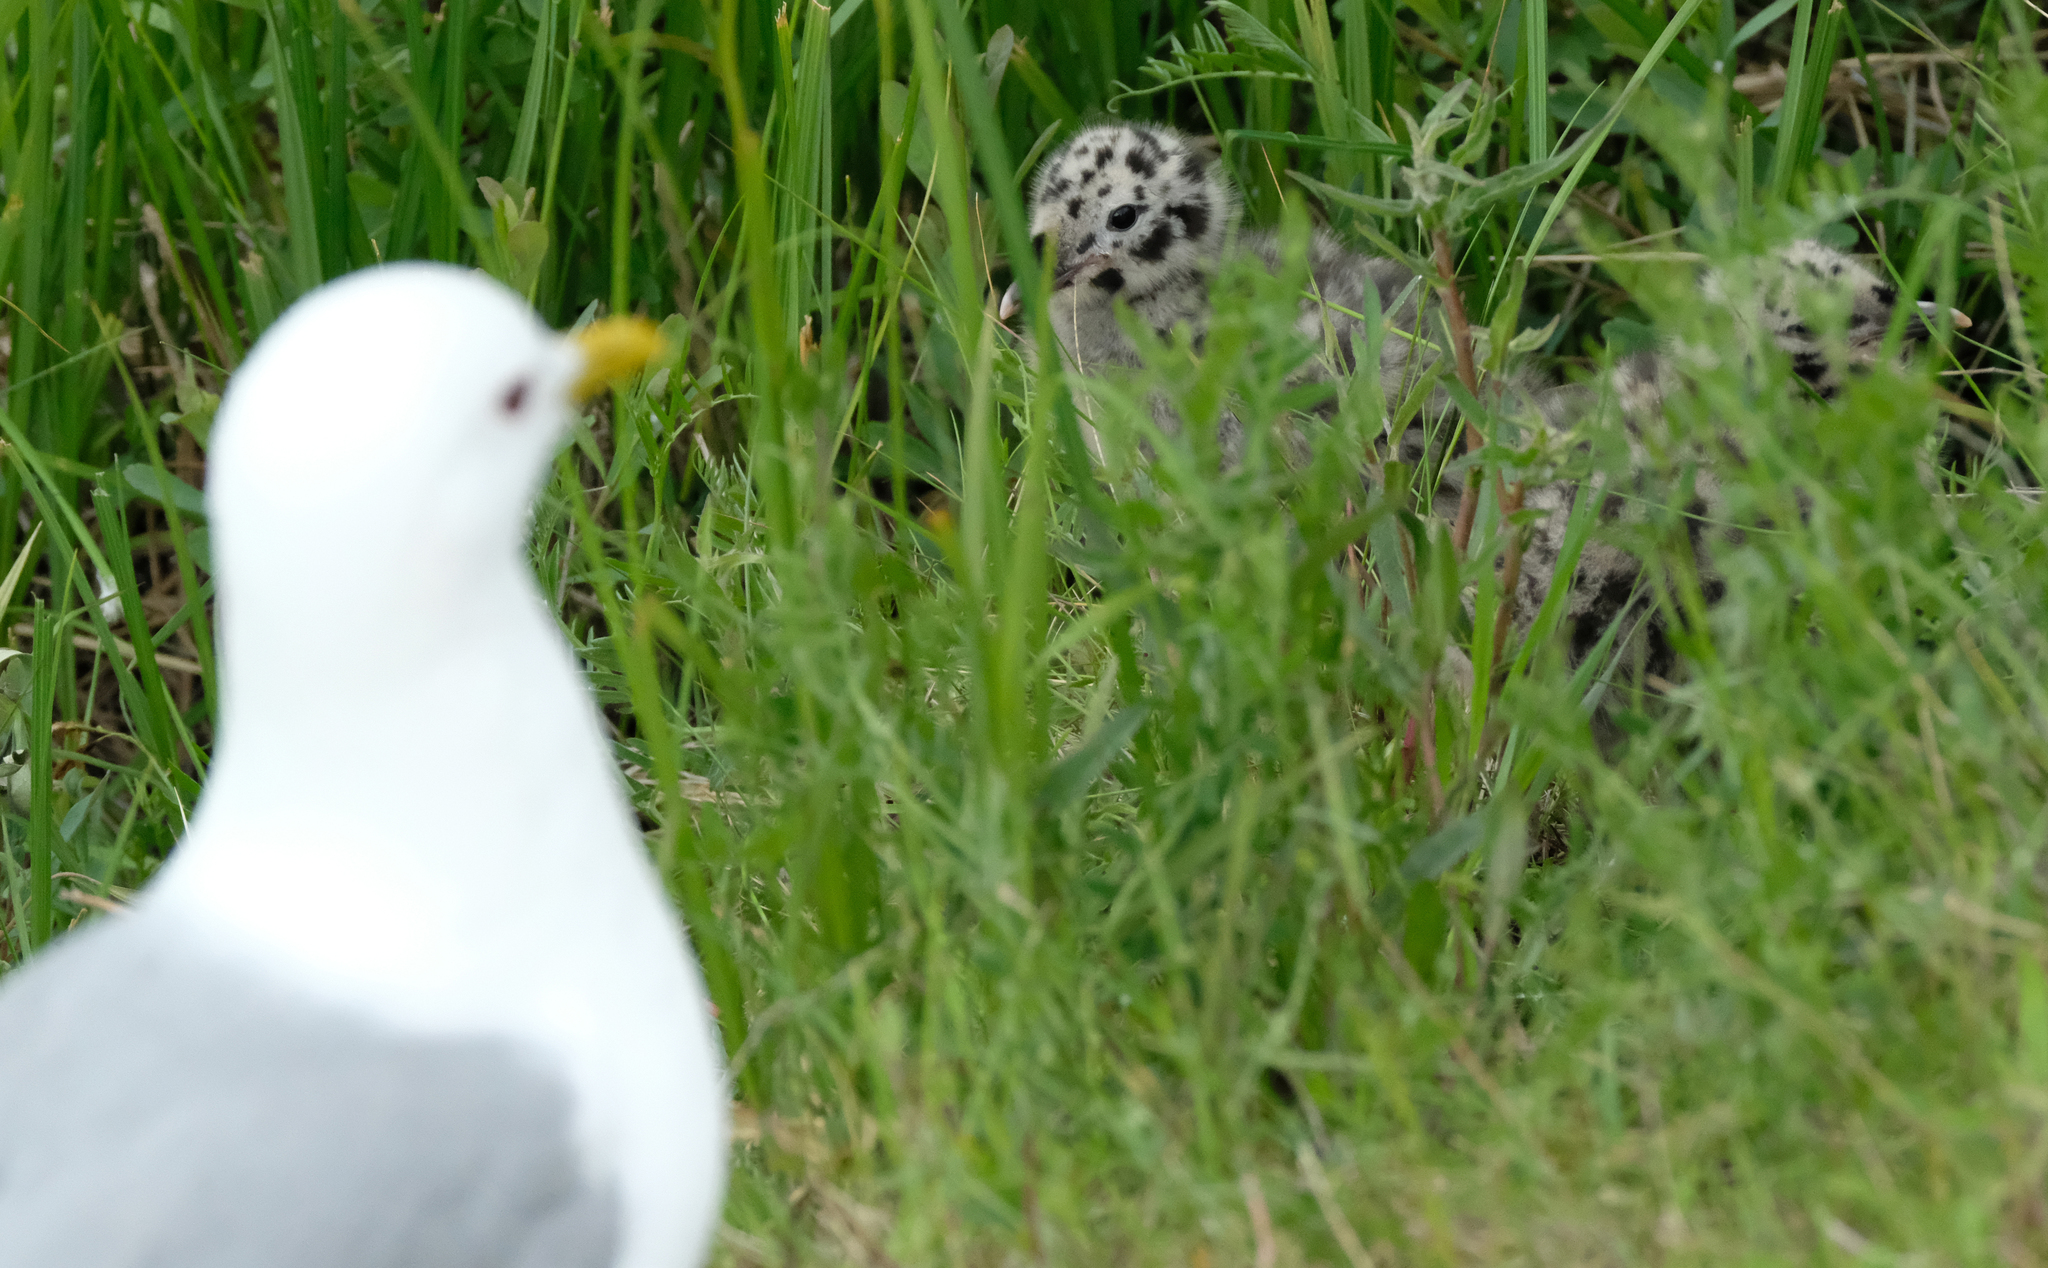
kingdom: Animalia
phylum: Chordata
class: Aves
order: Charadriiformes
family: Laridae
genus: Larus
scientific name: Larus brachyrhynchus
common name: Short-billed gull
